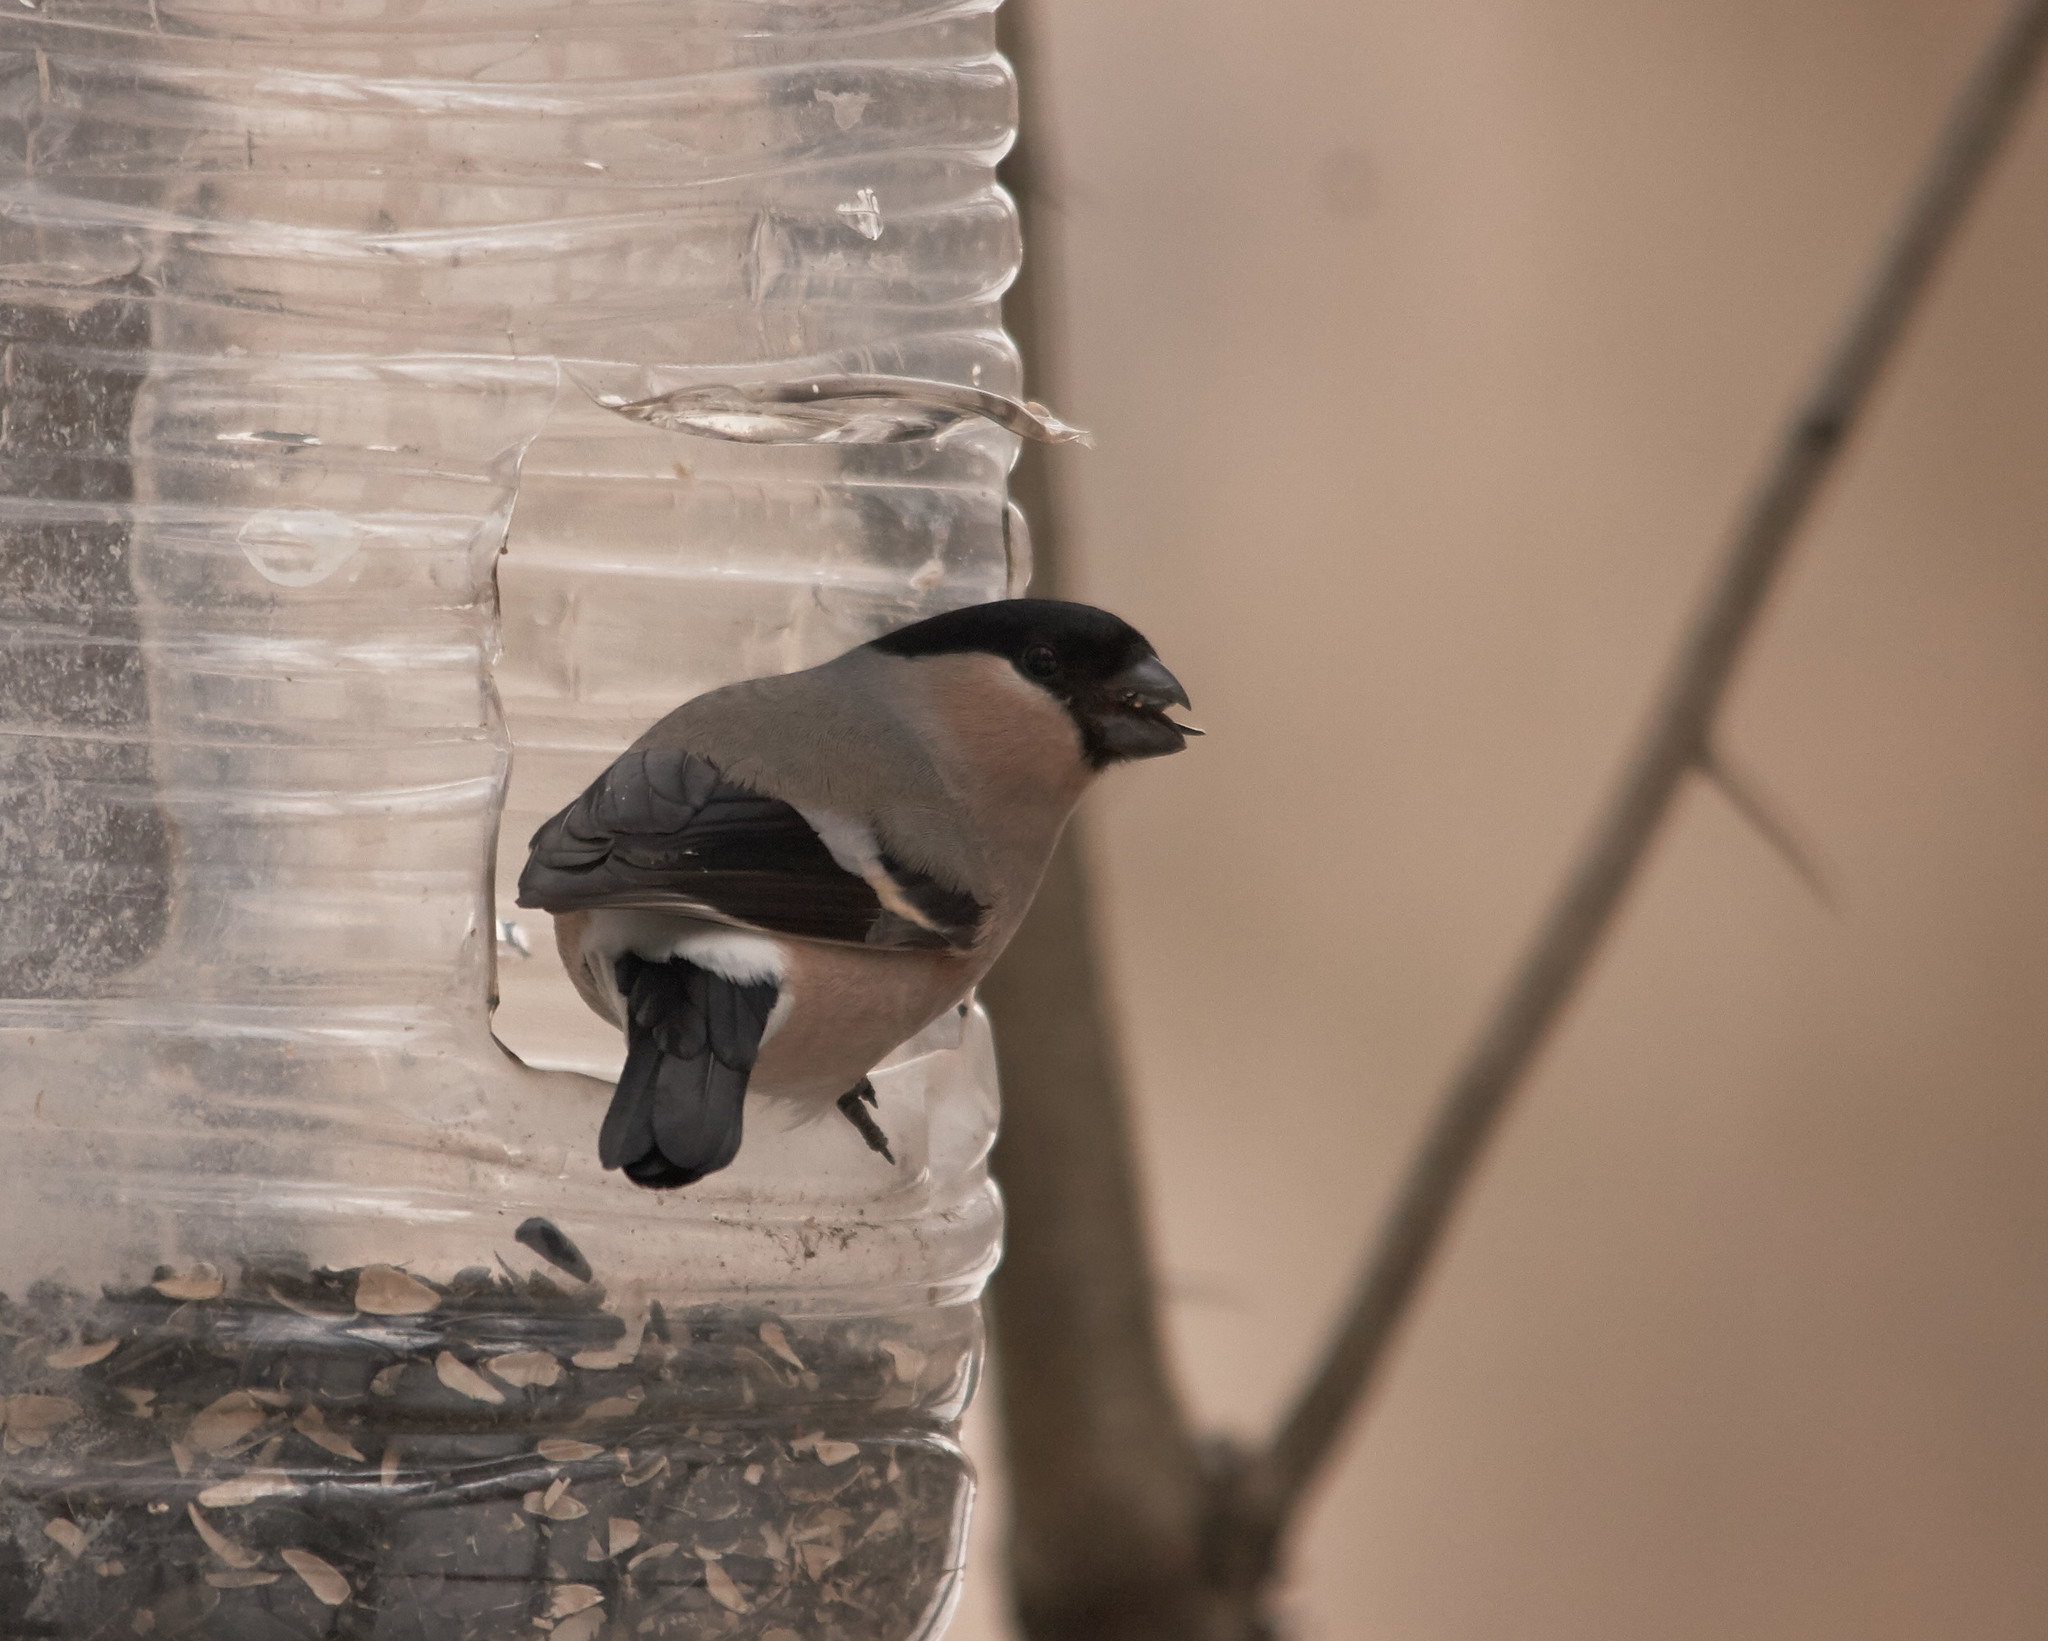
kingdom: Animalia
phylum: Chordata
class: Aves
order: Passeriformes
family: Fringillidae
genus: Pyrrhula
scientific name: Pyrrhula pyrrhula
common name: Eurasian bullfinch
